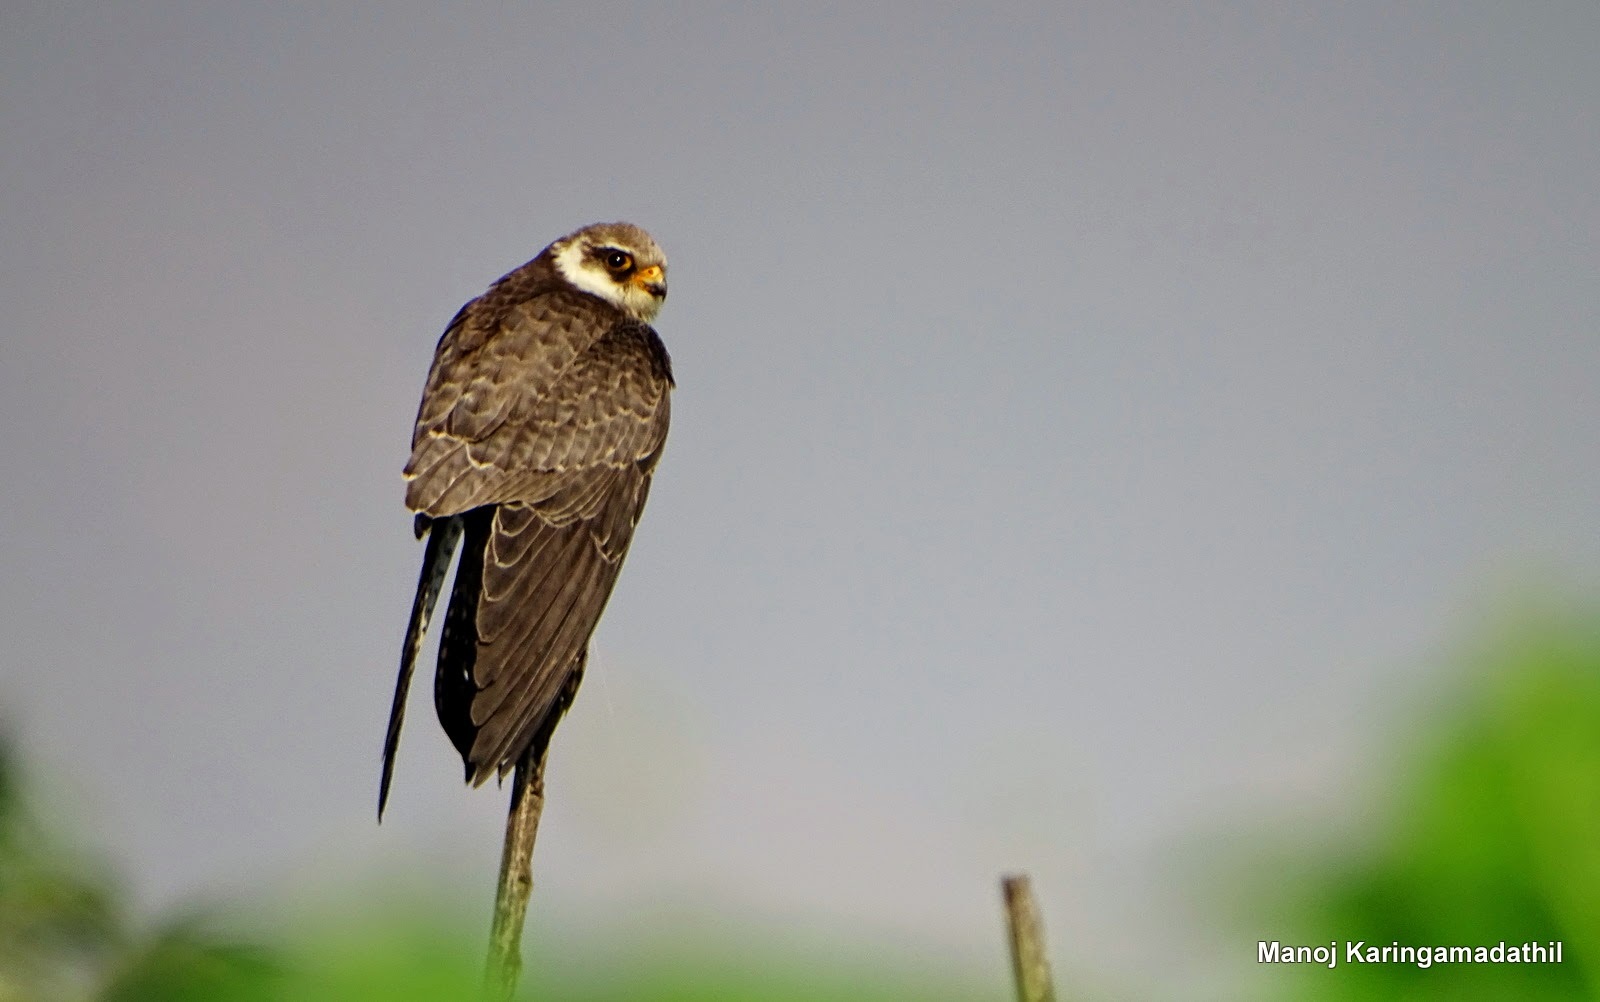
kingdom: Animalia
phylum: Chordata
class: Aves
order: Falconiformes
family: Falconidae
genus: Falco
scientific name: Falco amurensis
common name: Amur falcon
